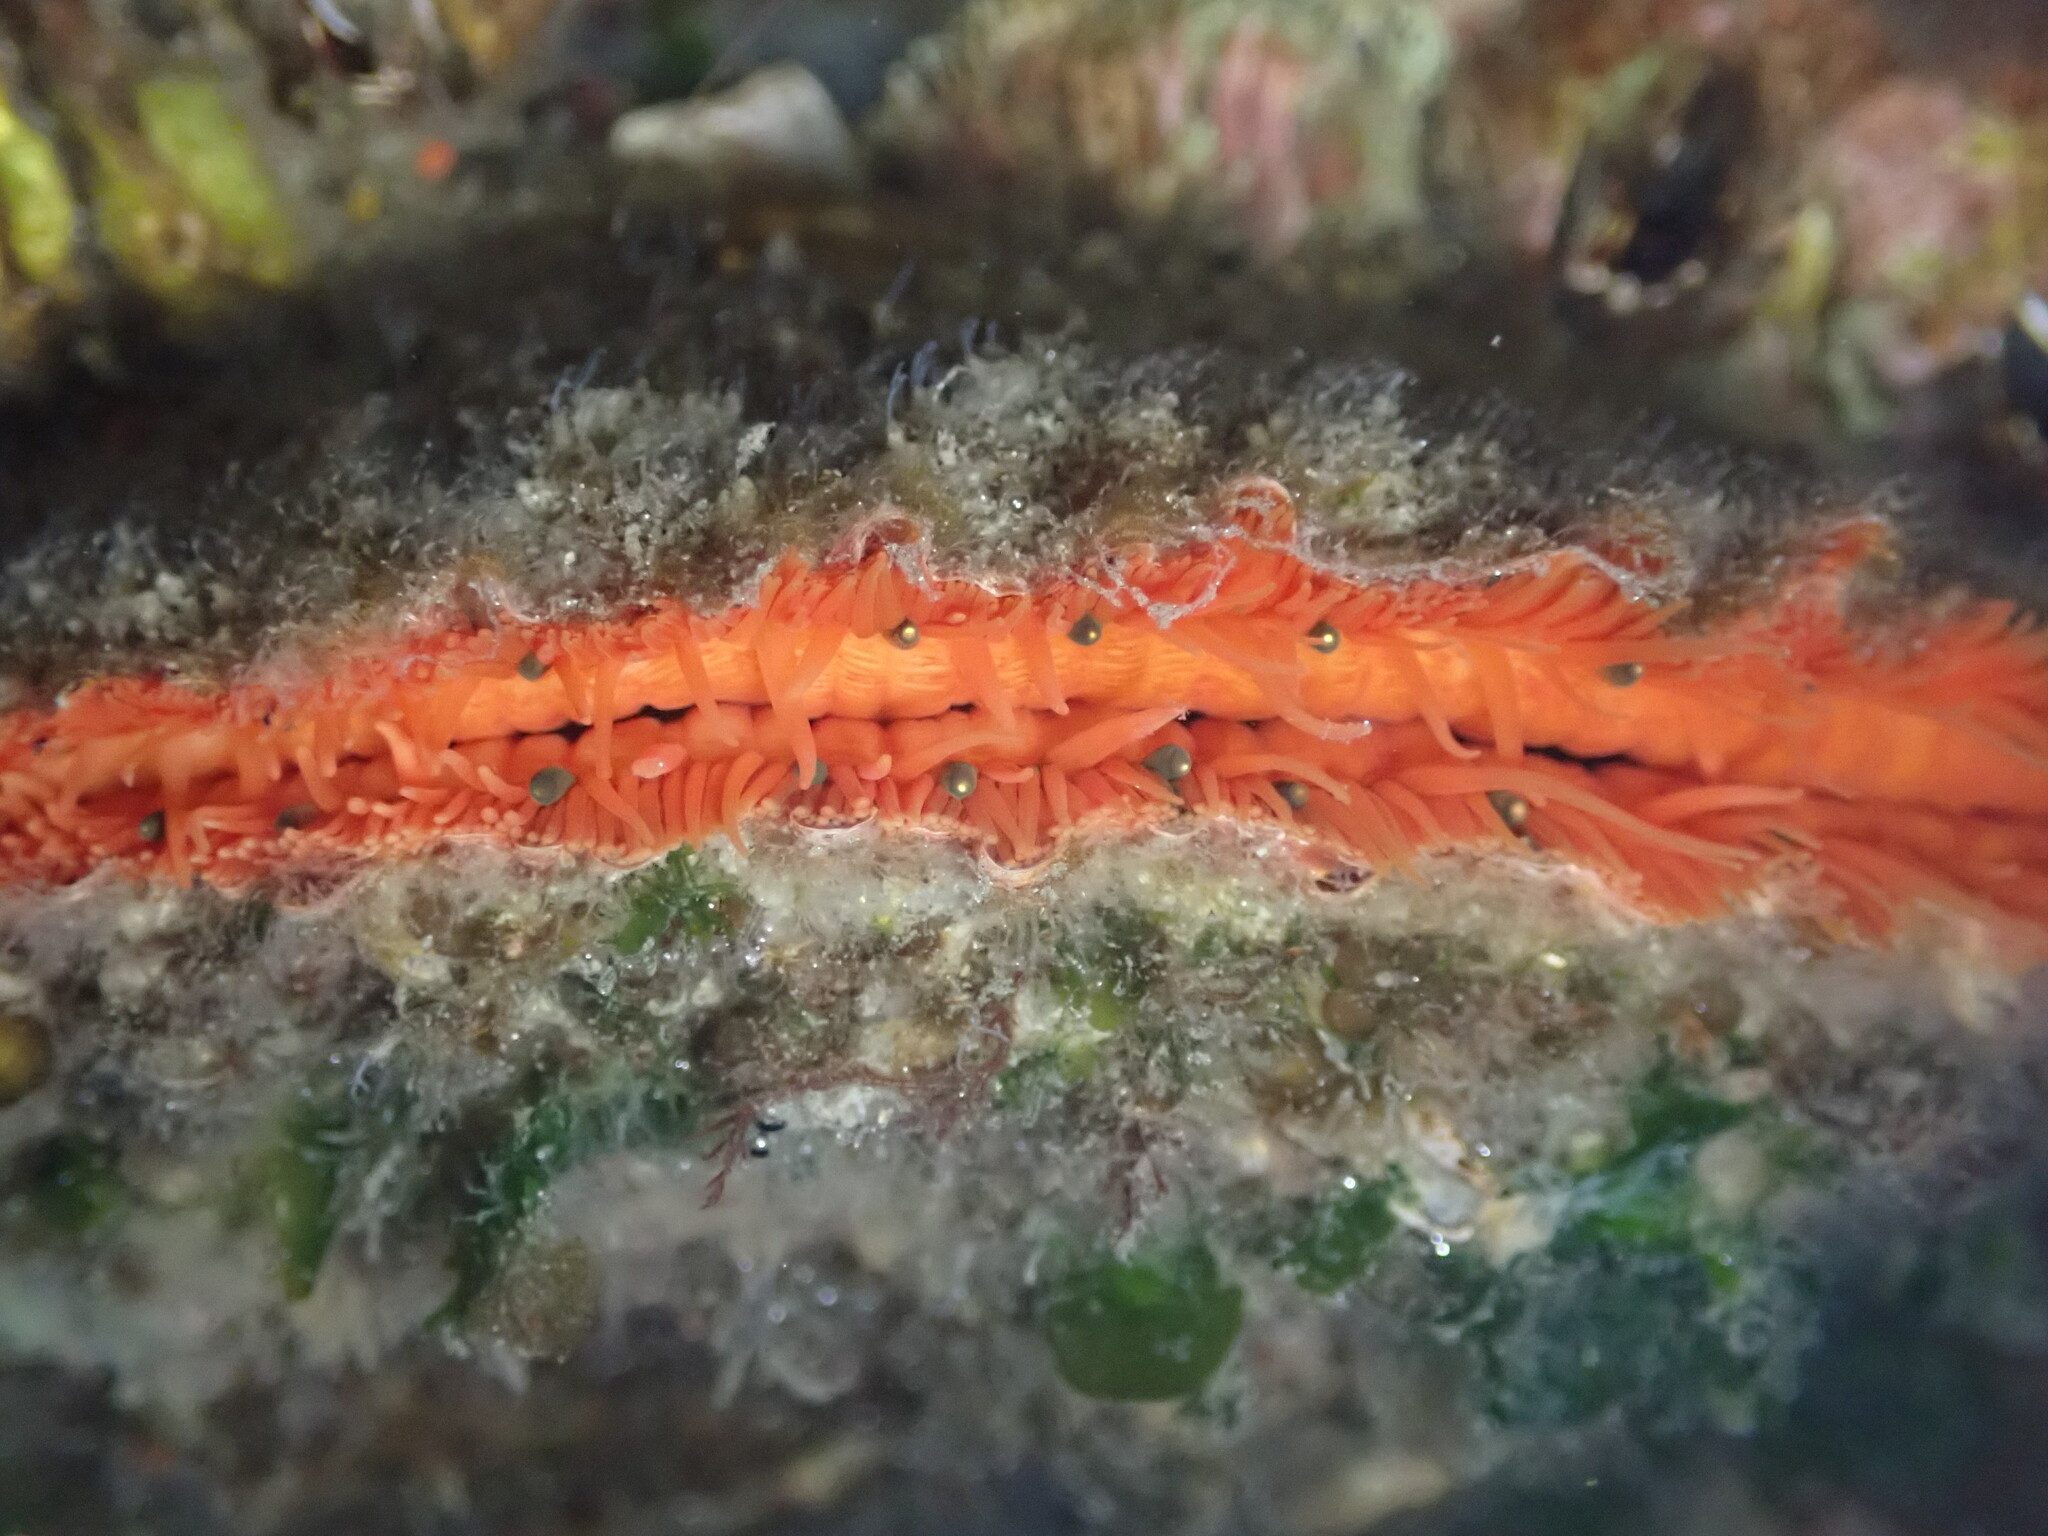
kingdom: Animalia
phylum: Mollusca
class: Bivalvia
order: Pectinida
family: Pectinidae
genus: Crassadoma
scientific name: Crassadoma gigantea
